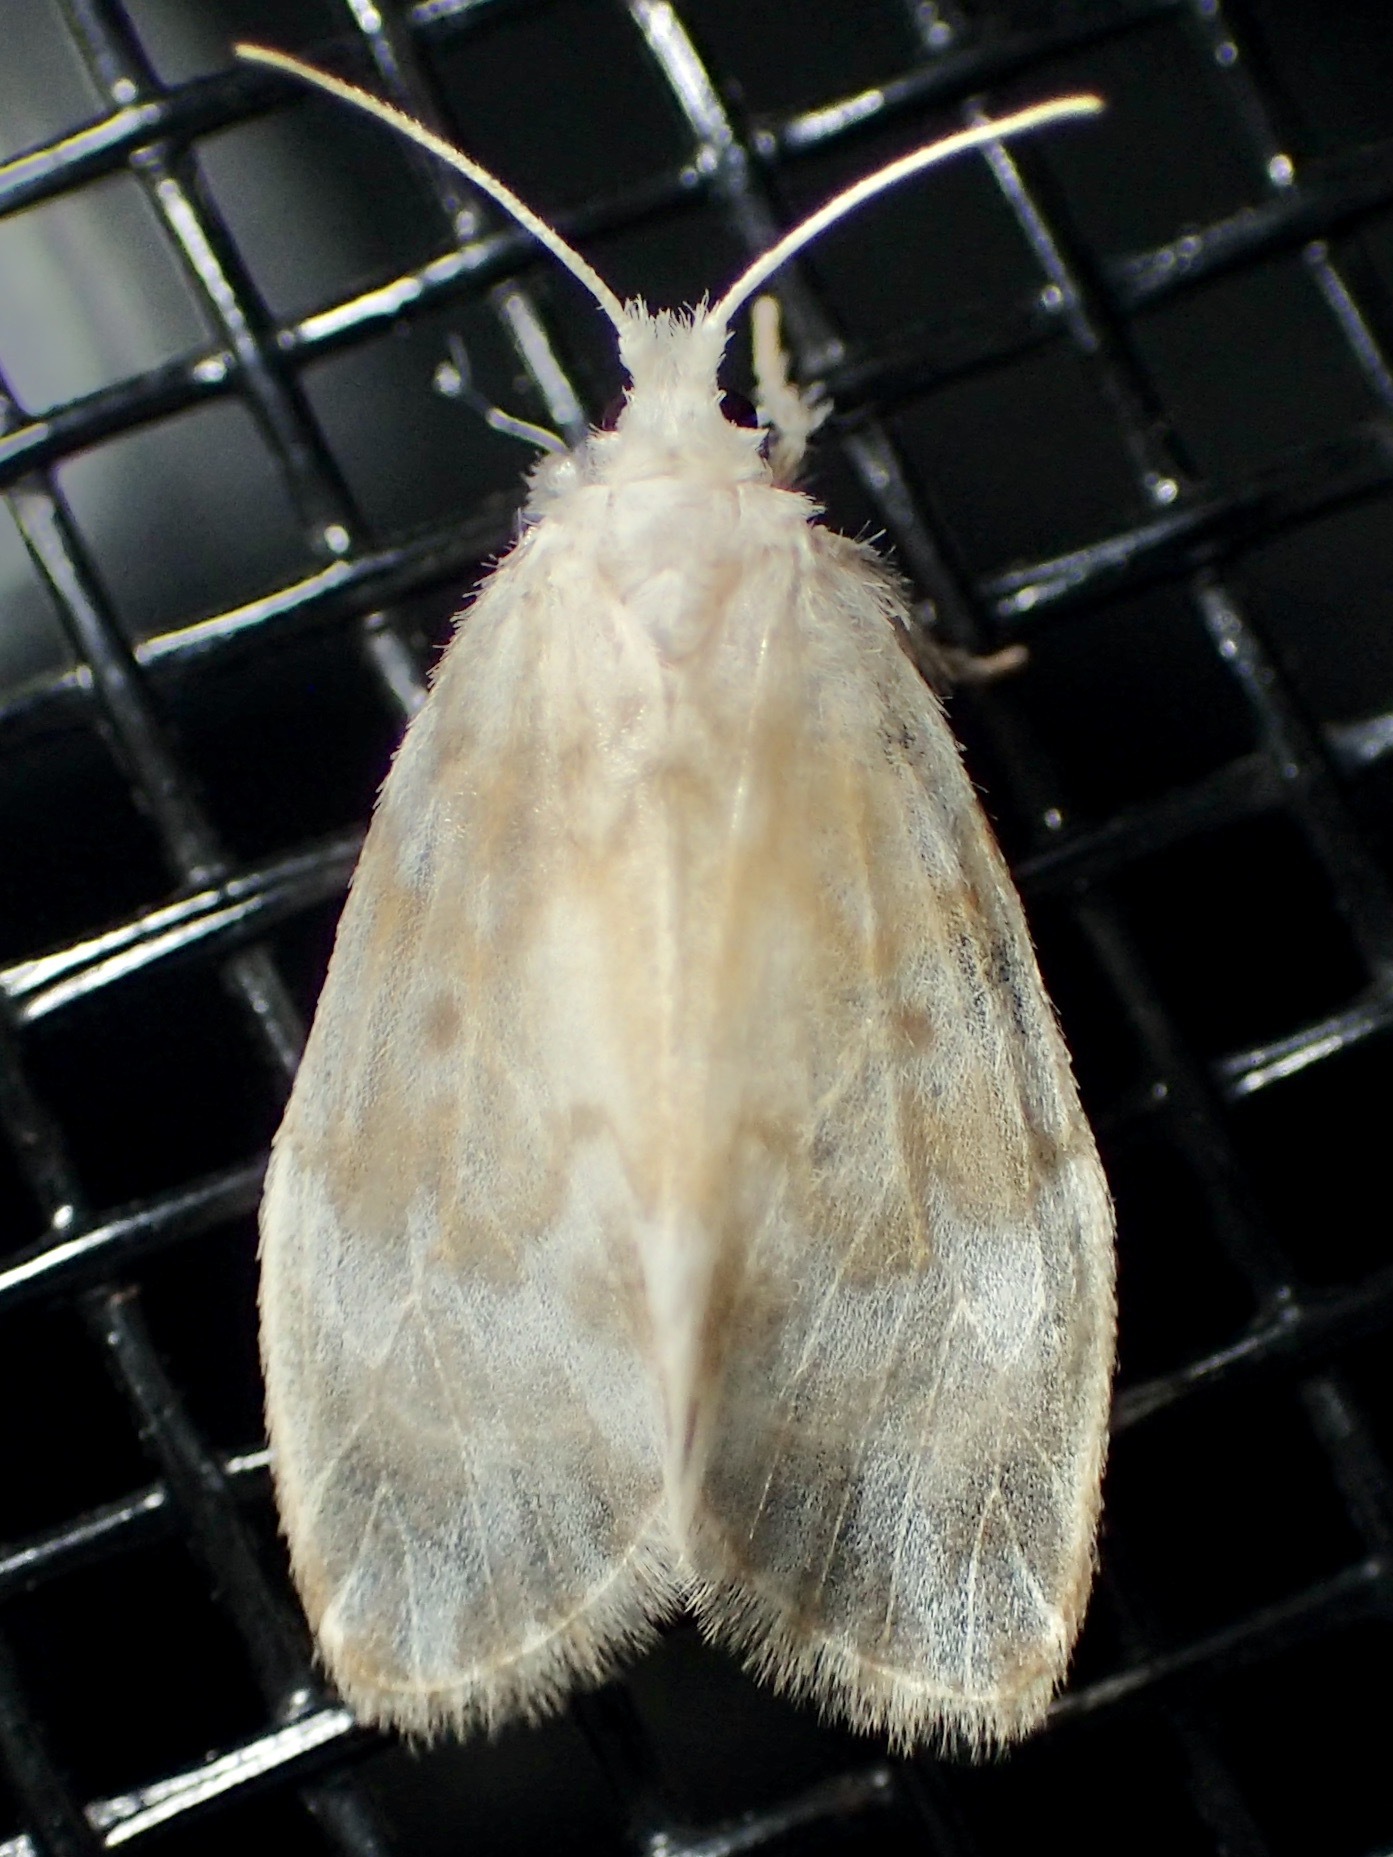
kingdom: Animalia
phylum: Arthropoda
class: Insecta
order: Lepidoptera
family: Erebidae
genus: Nudaria
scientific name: Nudaria mollis
